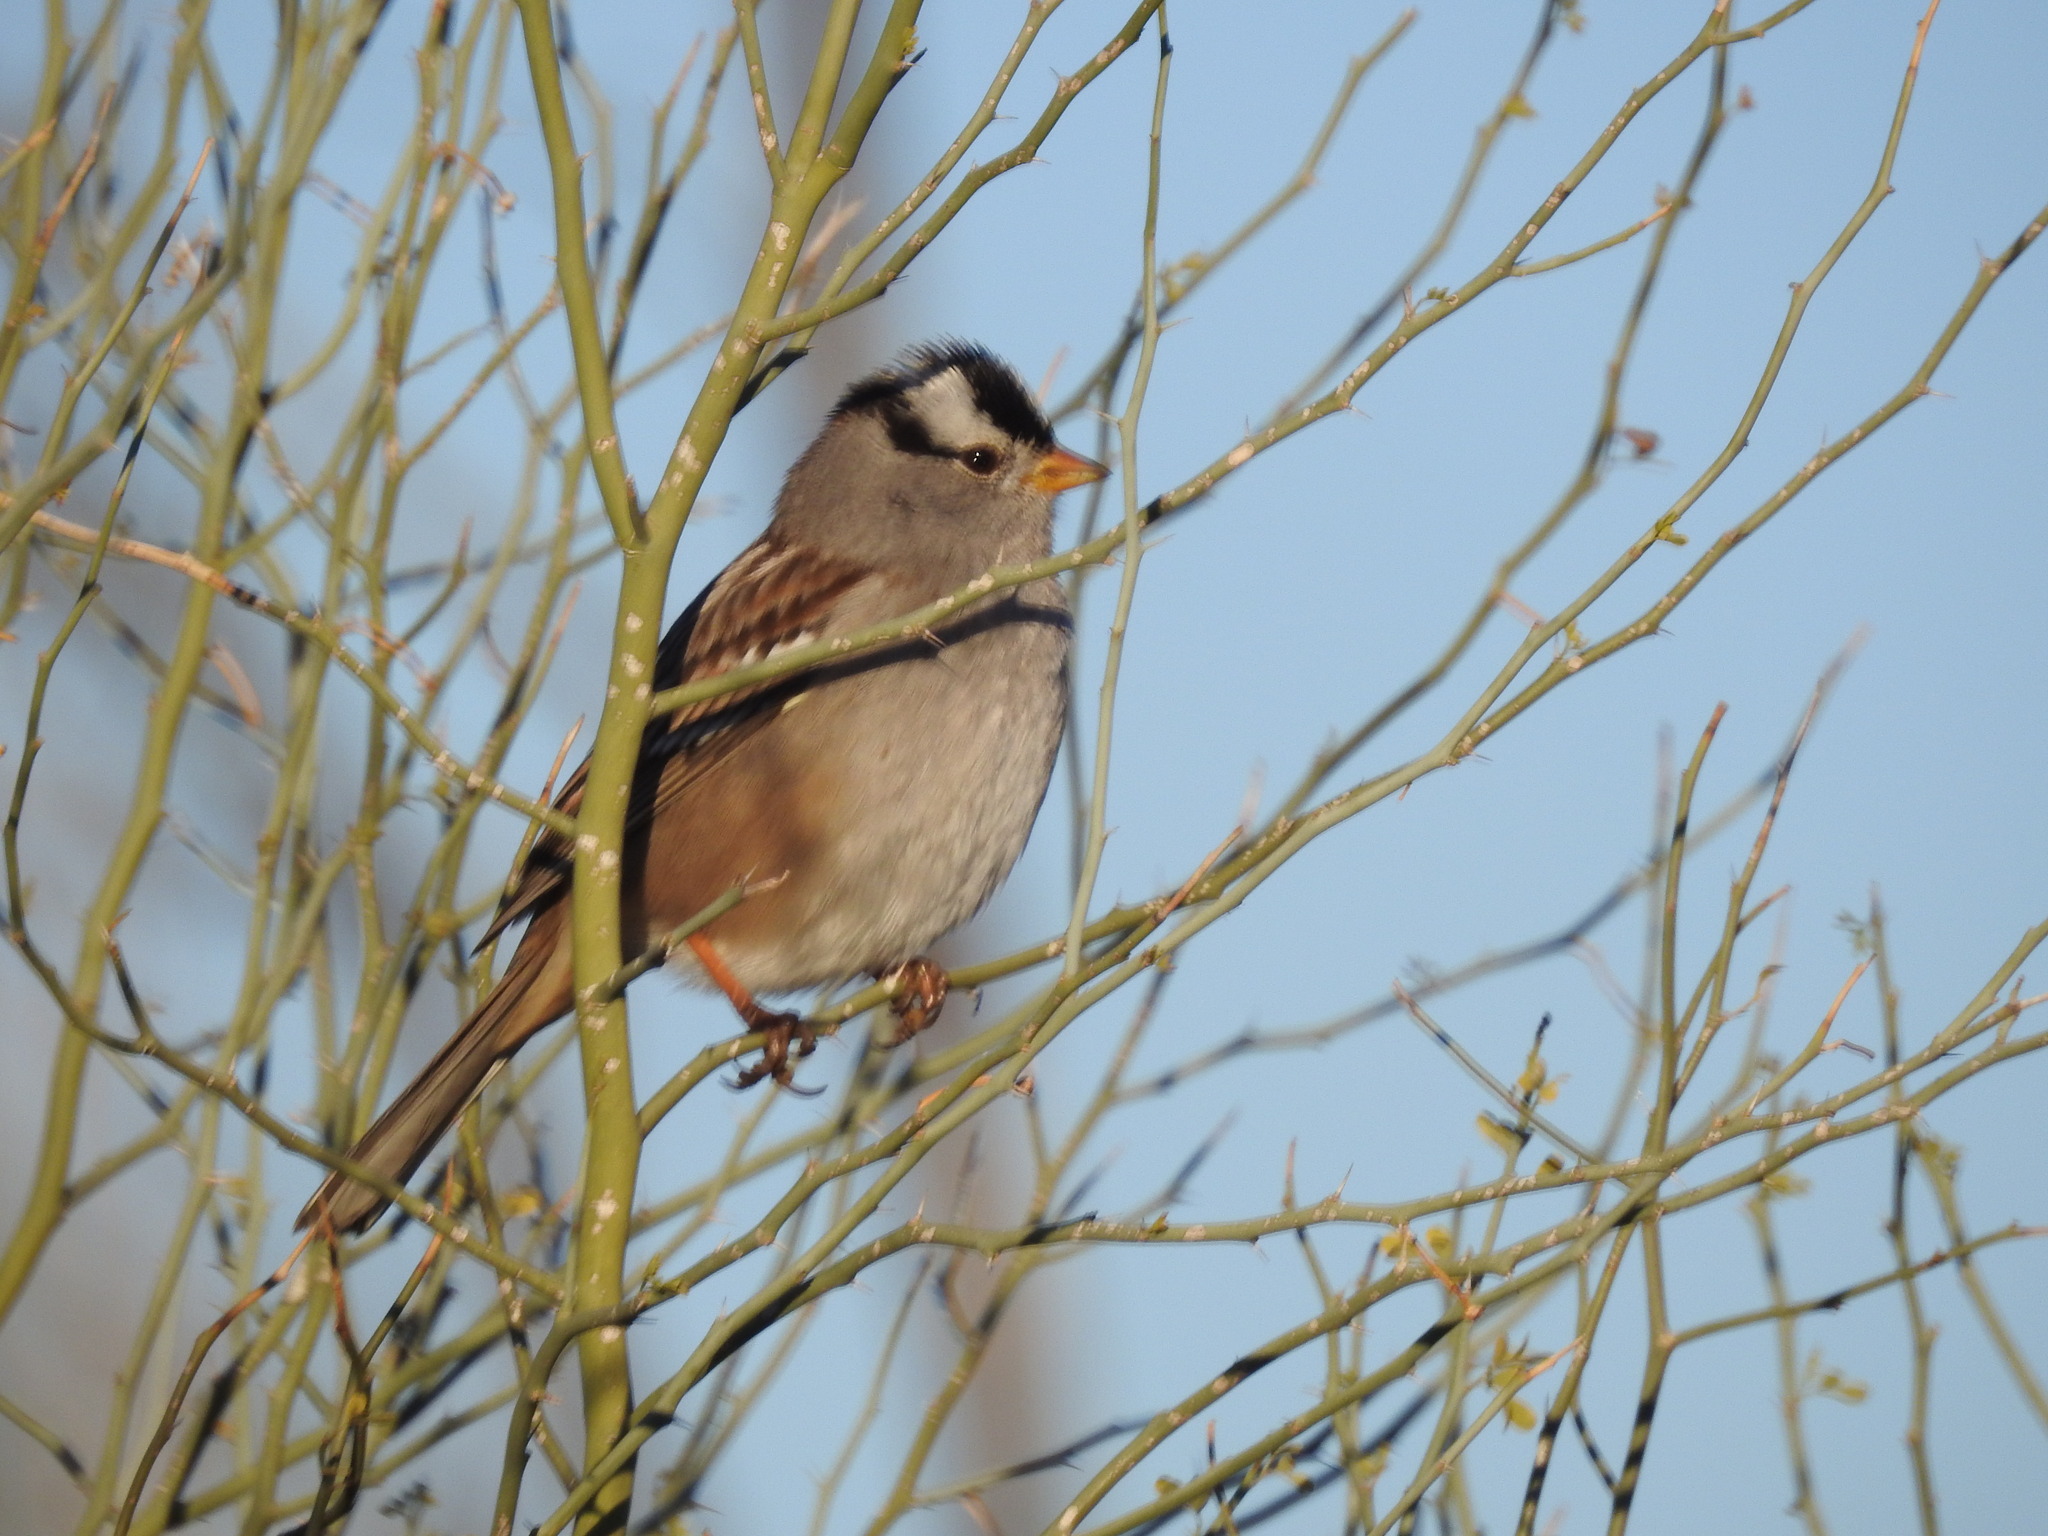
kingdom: Animalia
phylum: Chordata
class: Aves
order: Passeriformes
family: Passerellidae
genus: Zonotrichia
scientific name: Zonotrichia leucophrys
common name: White-crowned sparrow
